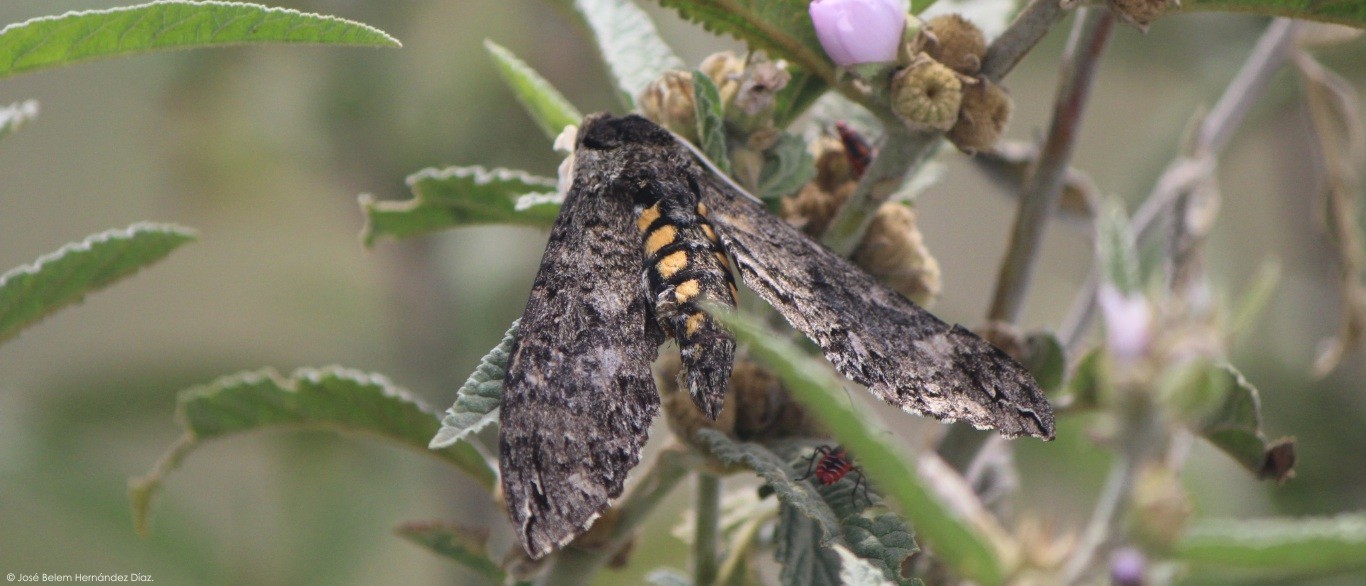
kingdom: Animalia
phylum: Arthropoda
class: Insecta
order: Lepidoptera
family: Sphingidae
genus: Manduca
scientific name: Manduca sexta
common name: Carolina sphinx
